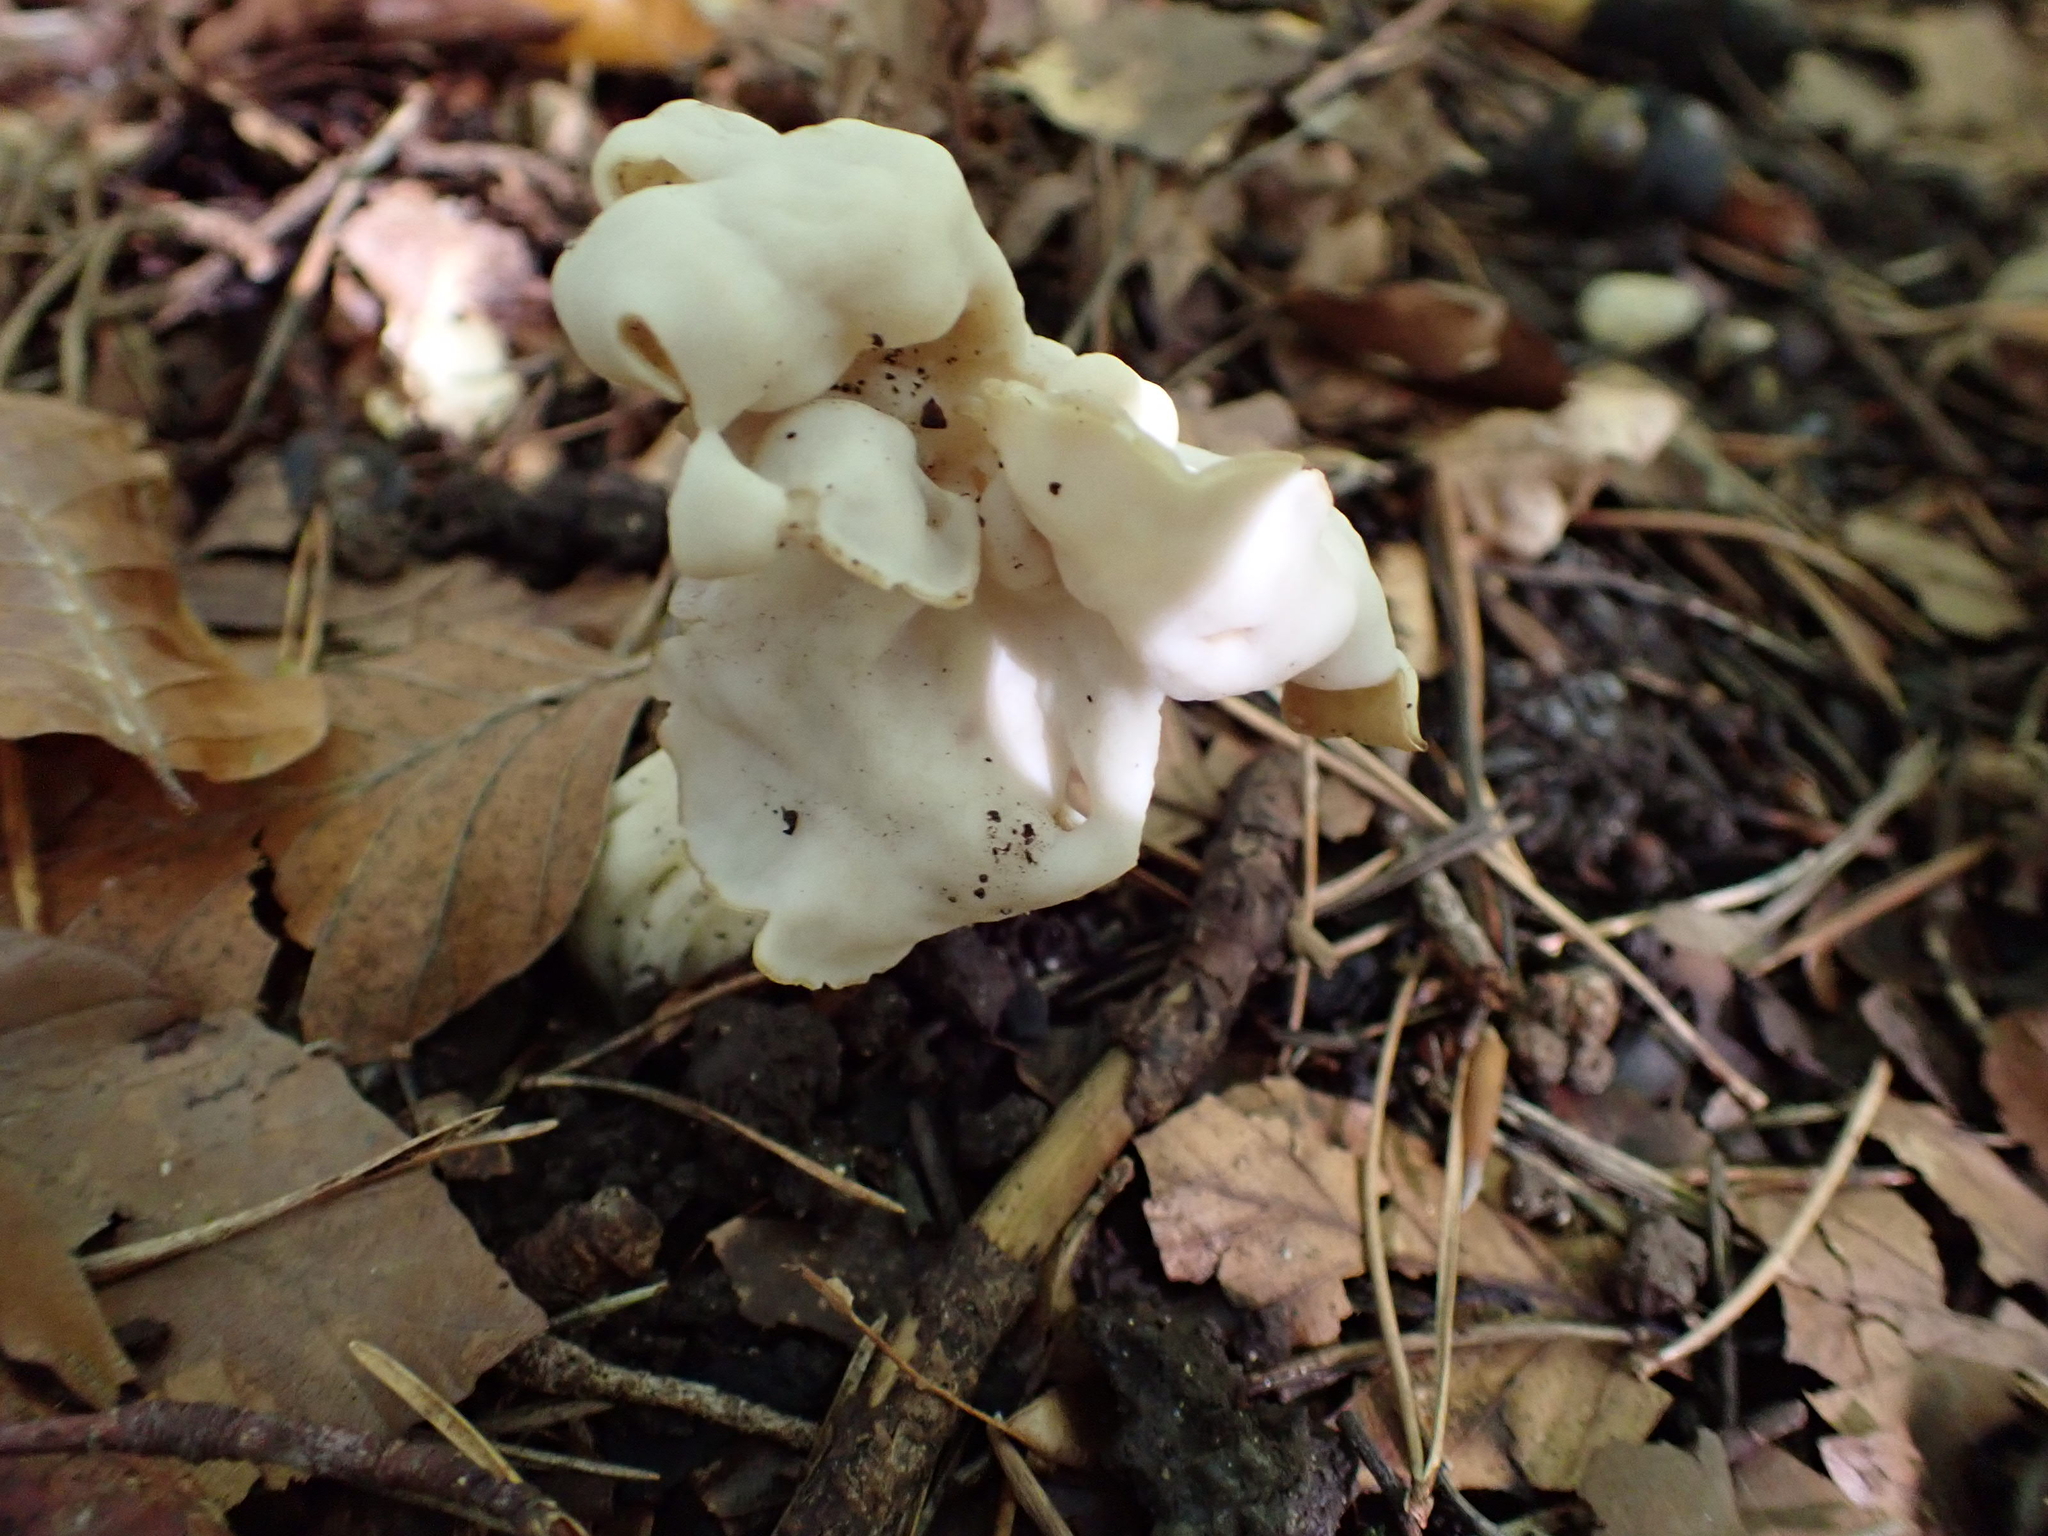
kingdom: Fungi
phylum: Ascomycota
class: Pezizomycetes
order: Pezizales
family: Helvellaceae
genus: Helvella
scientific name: Helvella crispa
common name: White saddle
